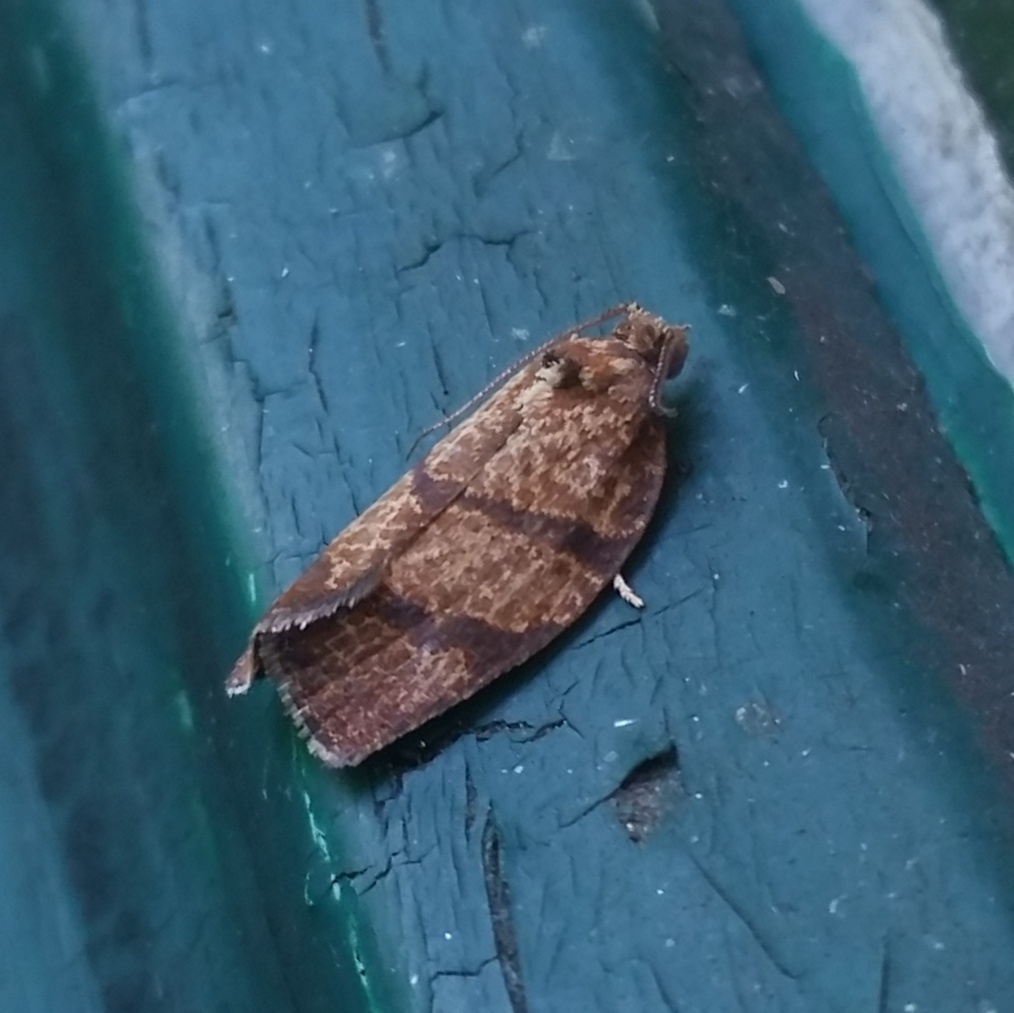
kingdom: Animalia
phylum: Arthropoda
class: Insecta
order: Lepidoptera
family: Tortricidae
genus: Argyrotaenia
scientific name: Argyrotaenia juglandana
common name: Hickory leafroller moth
